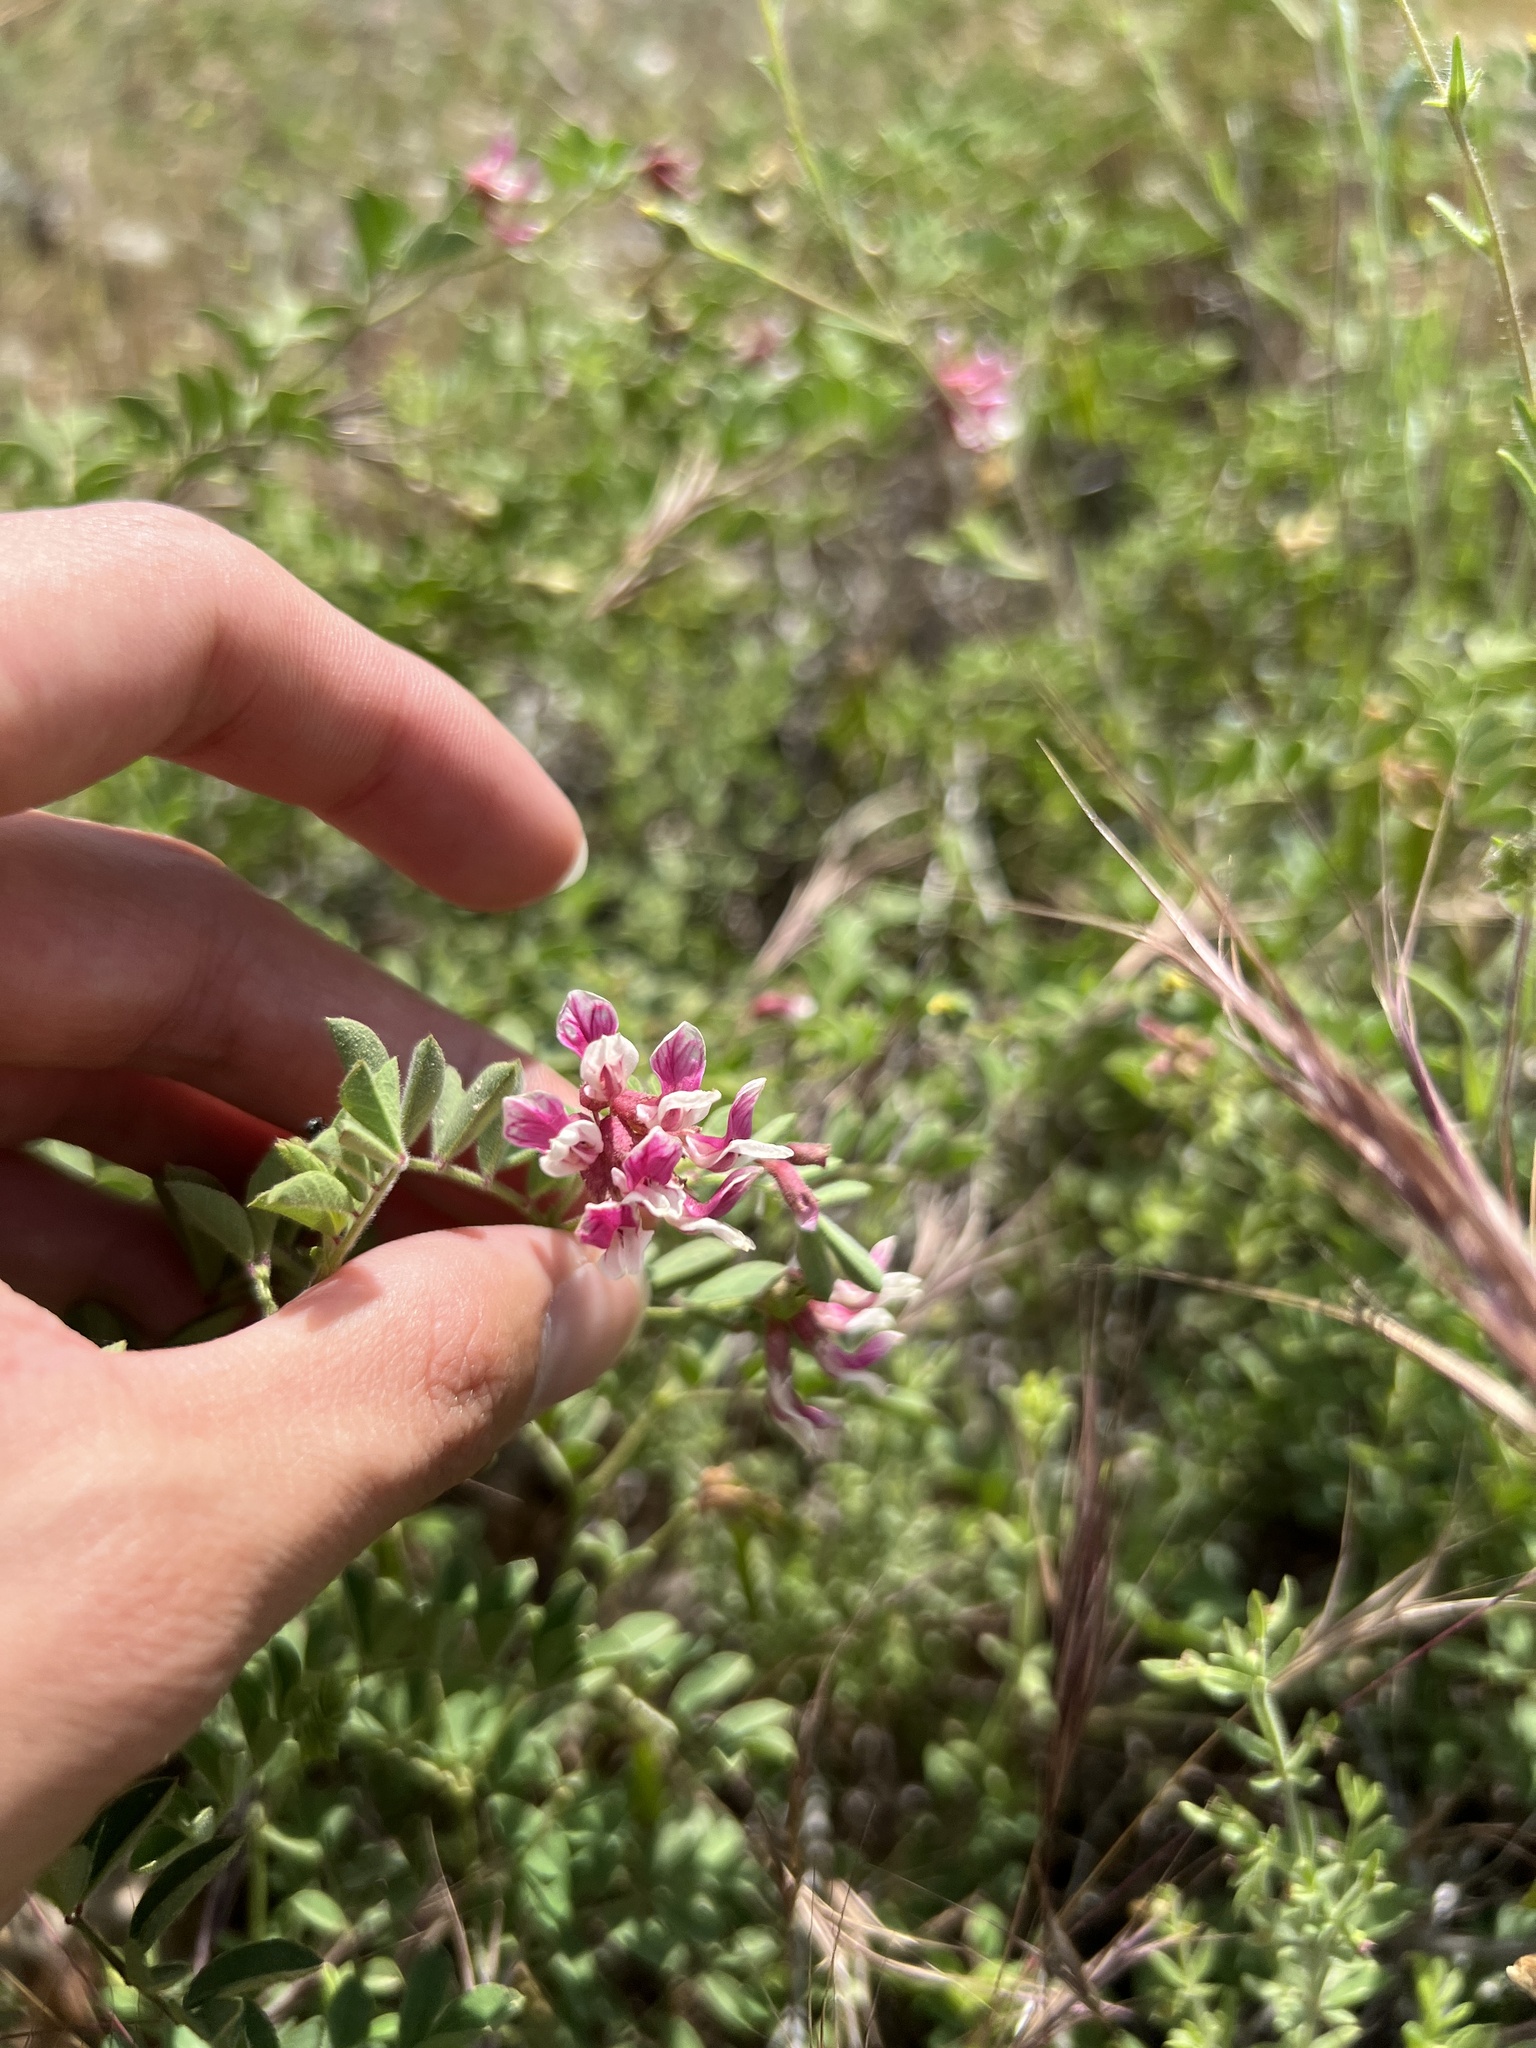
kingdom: Plantae
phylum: Tracheophyta
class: Magnoliopsida
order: Fabales
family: Fabaceae
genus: Hosackia
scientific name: Hosackia stipularis
